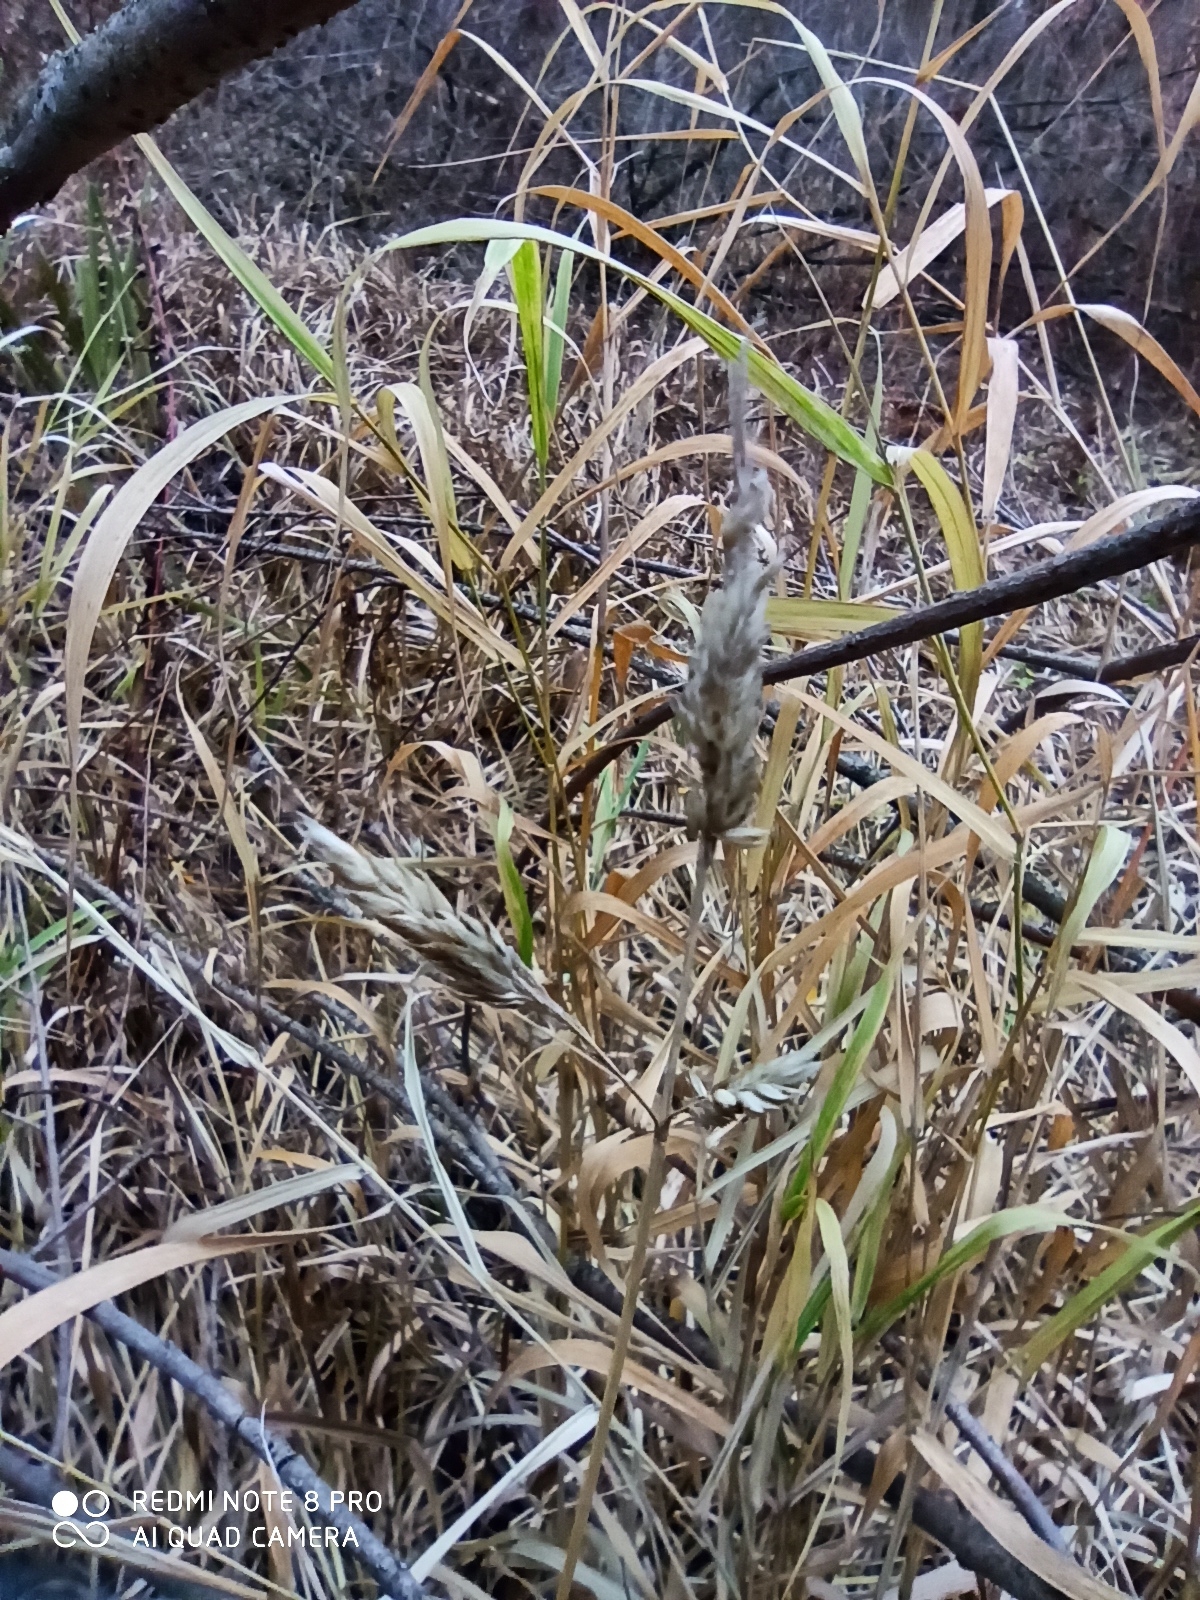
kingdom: Plantae
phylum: Tracheophyta
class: Liliopsida
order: Poales
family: Poaceae
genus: Phalaris
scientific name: Phalaris arundinacea
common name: Reed canary-grass
